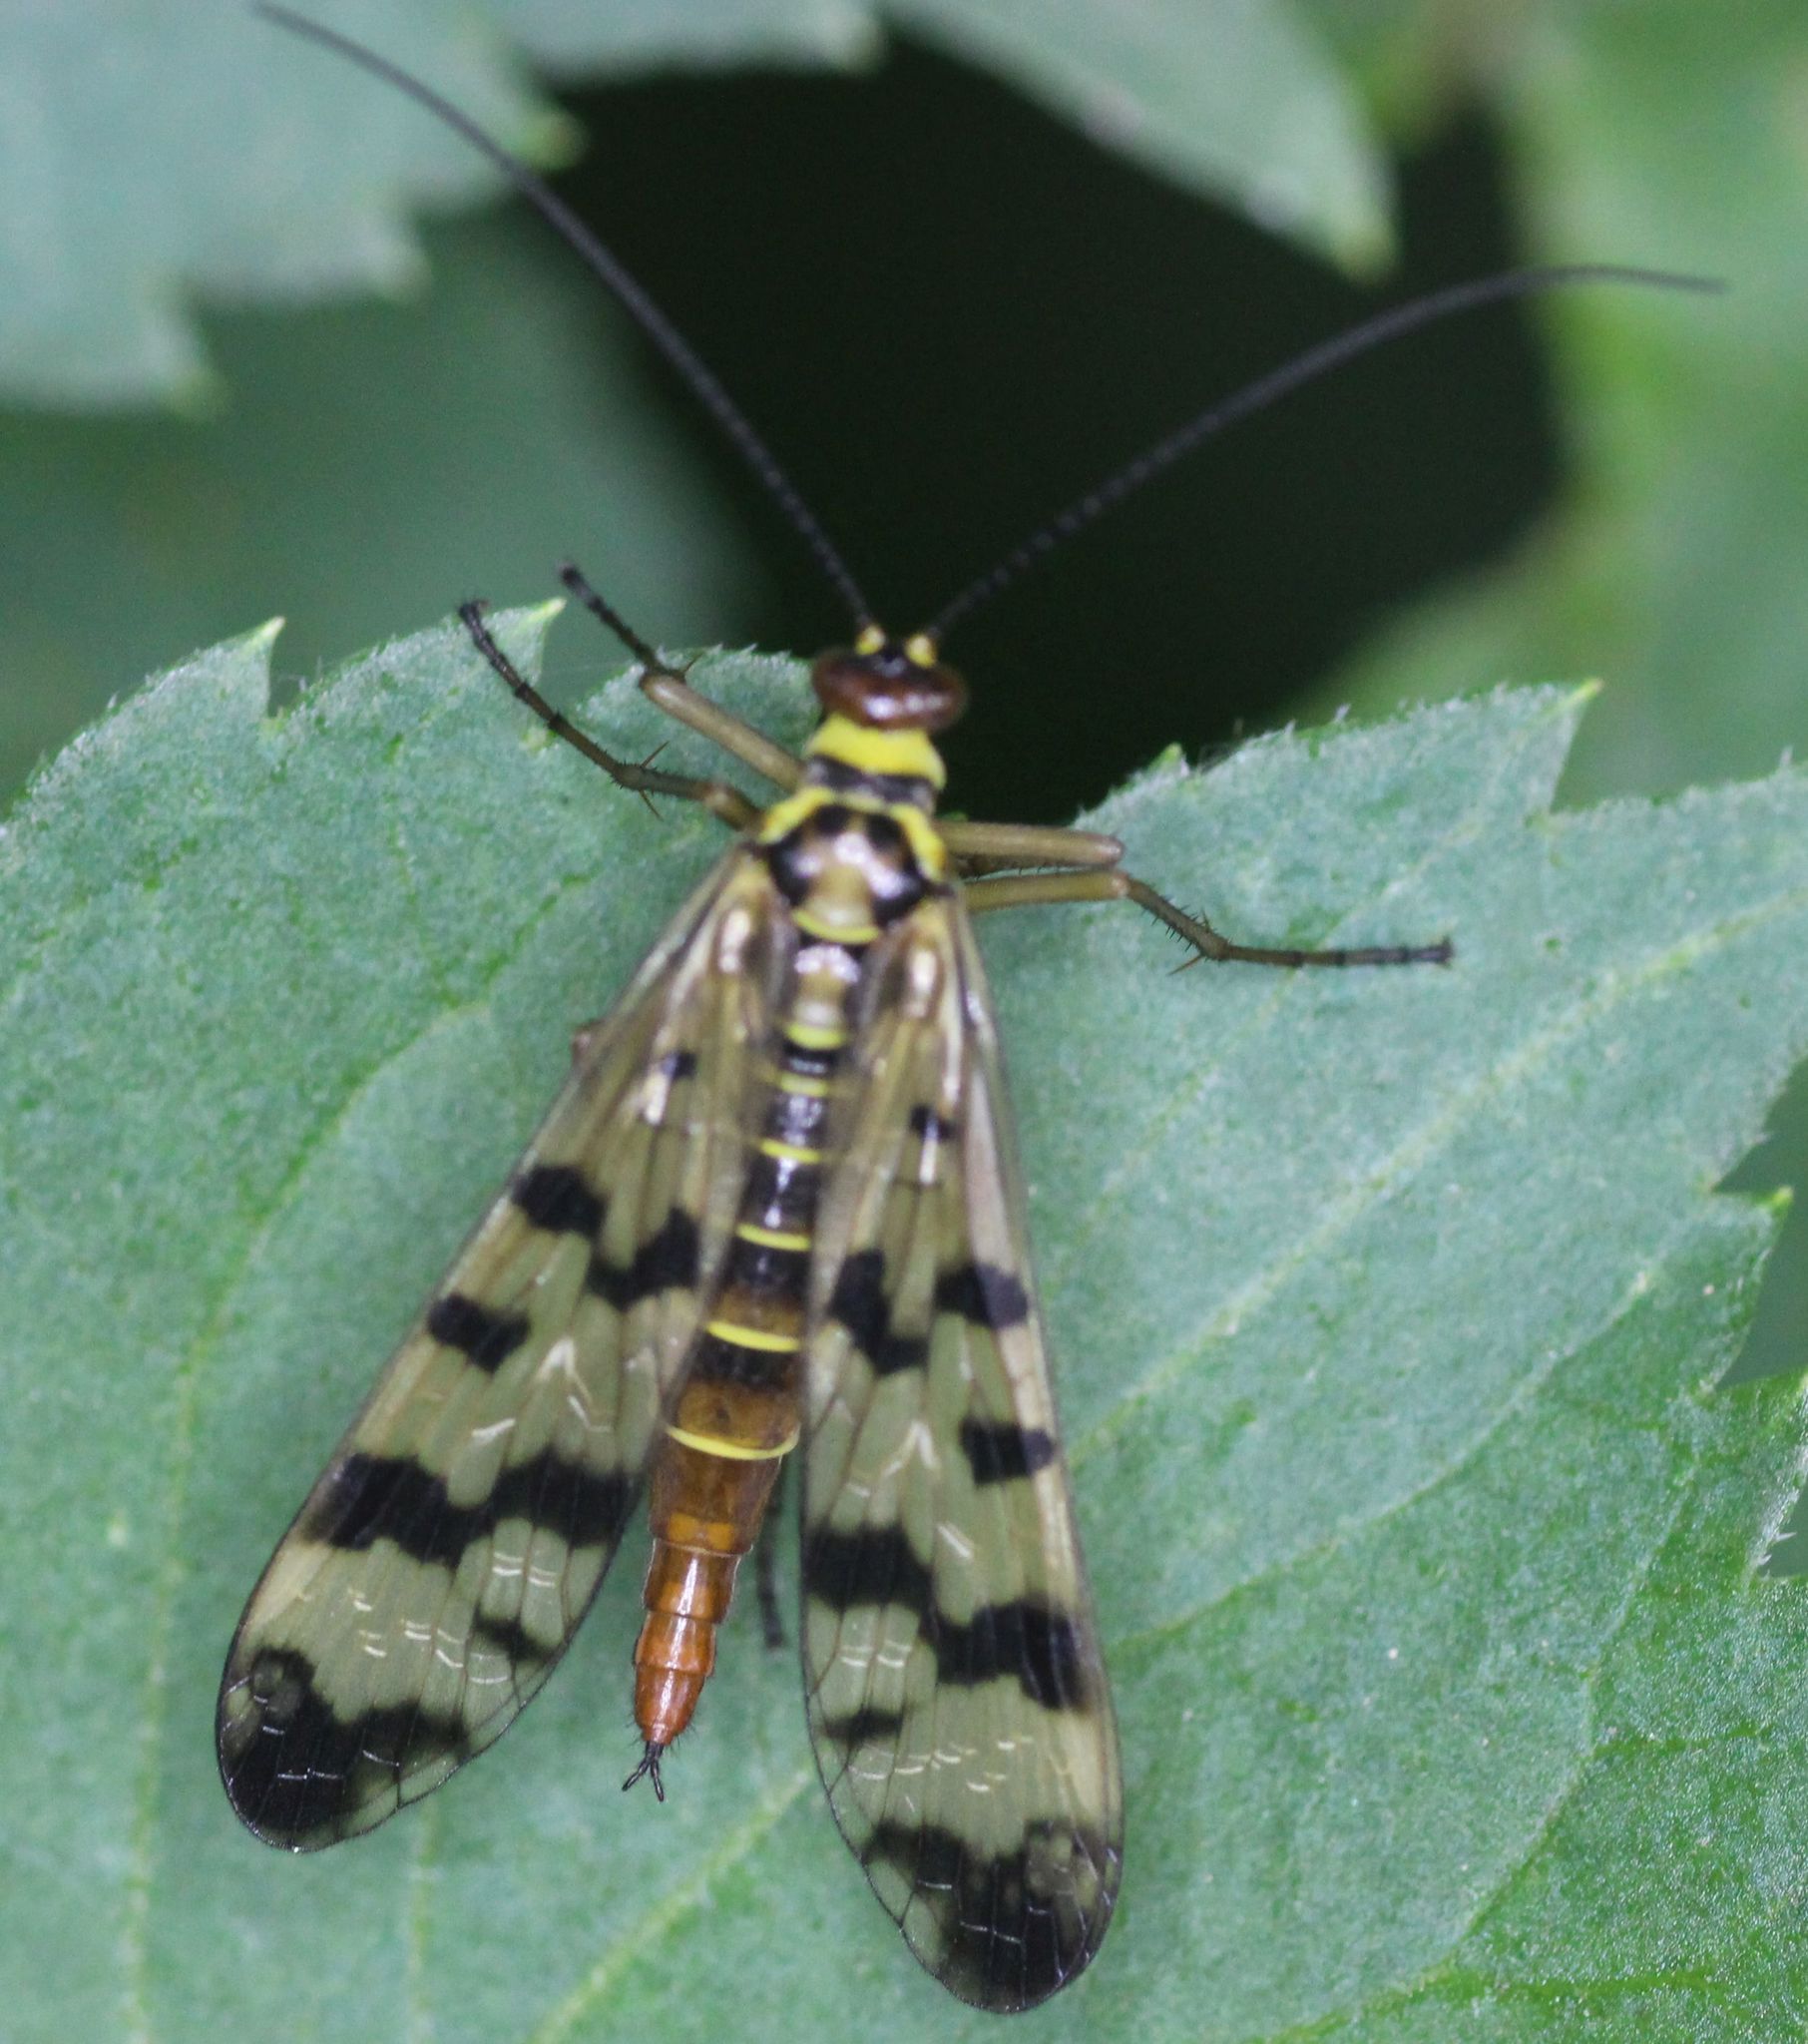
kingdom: Animalia
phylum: Arthropoda
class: Insecta
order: Mecoptera
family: Panorpidae
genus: Panorpa
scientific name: Panorpa communis
